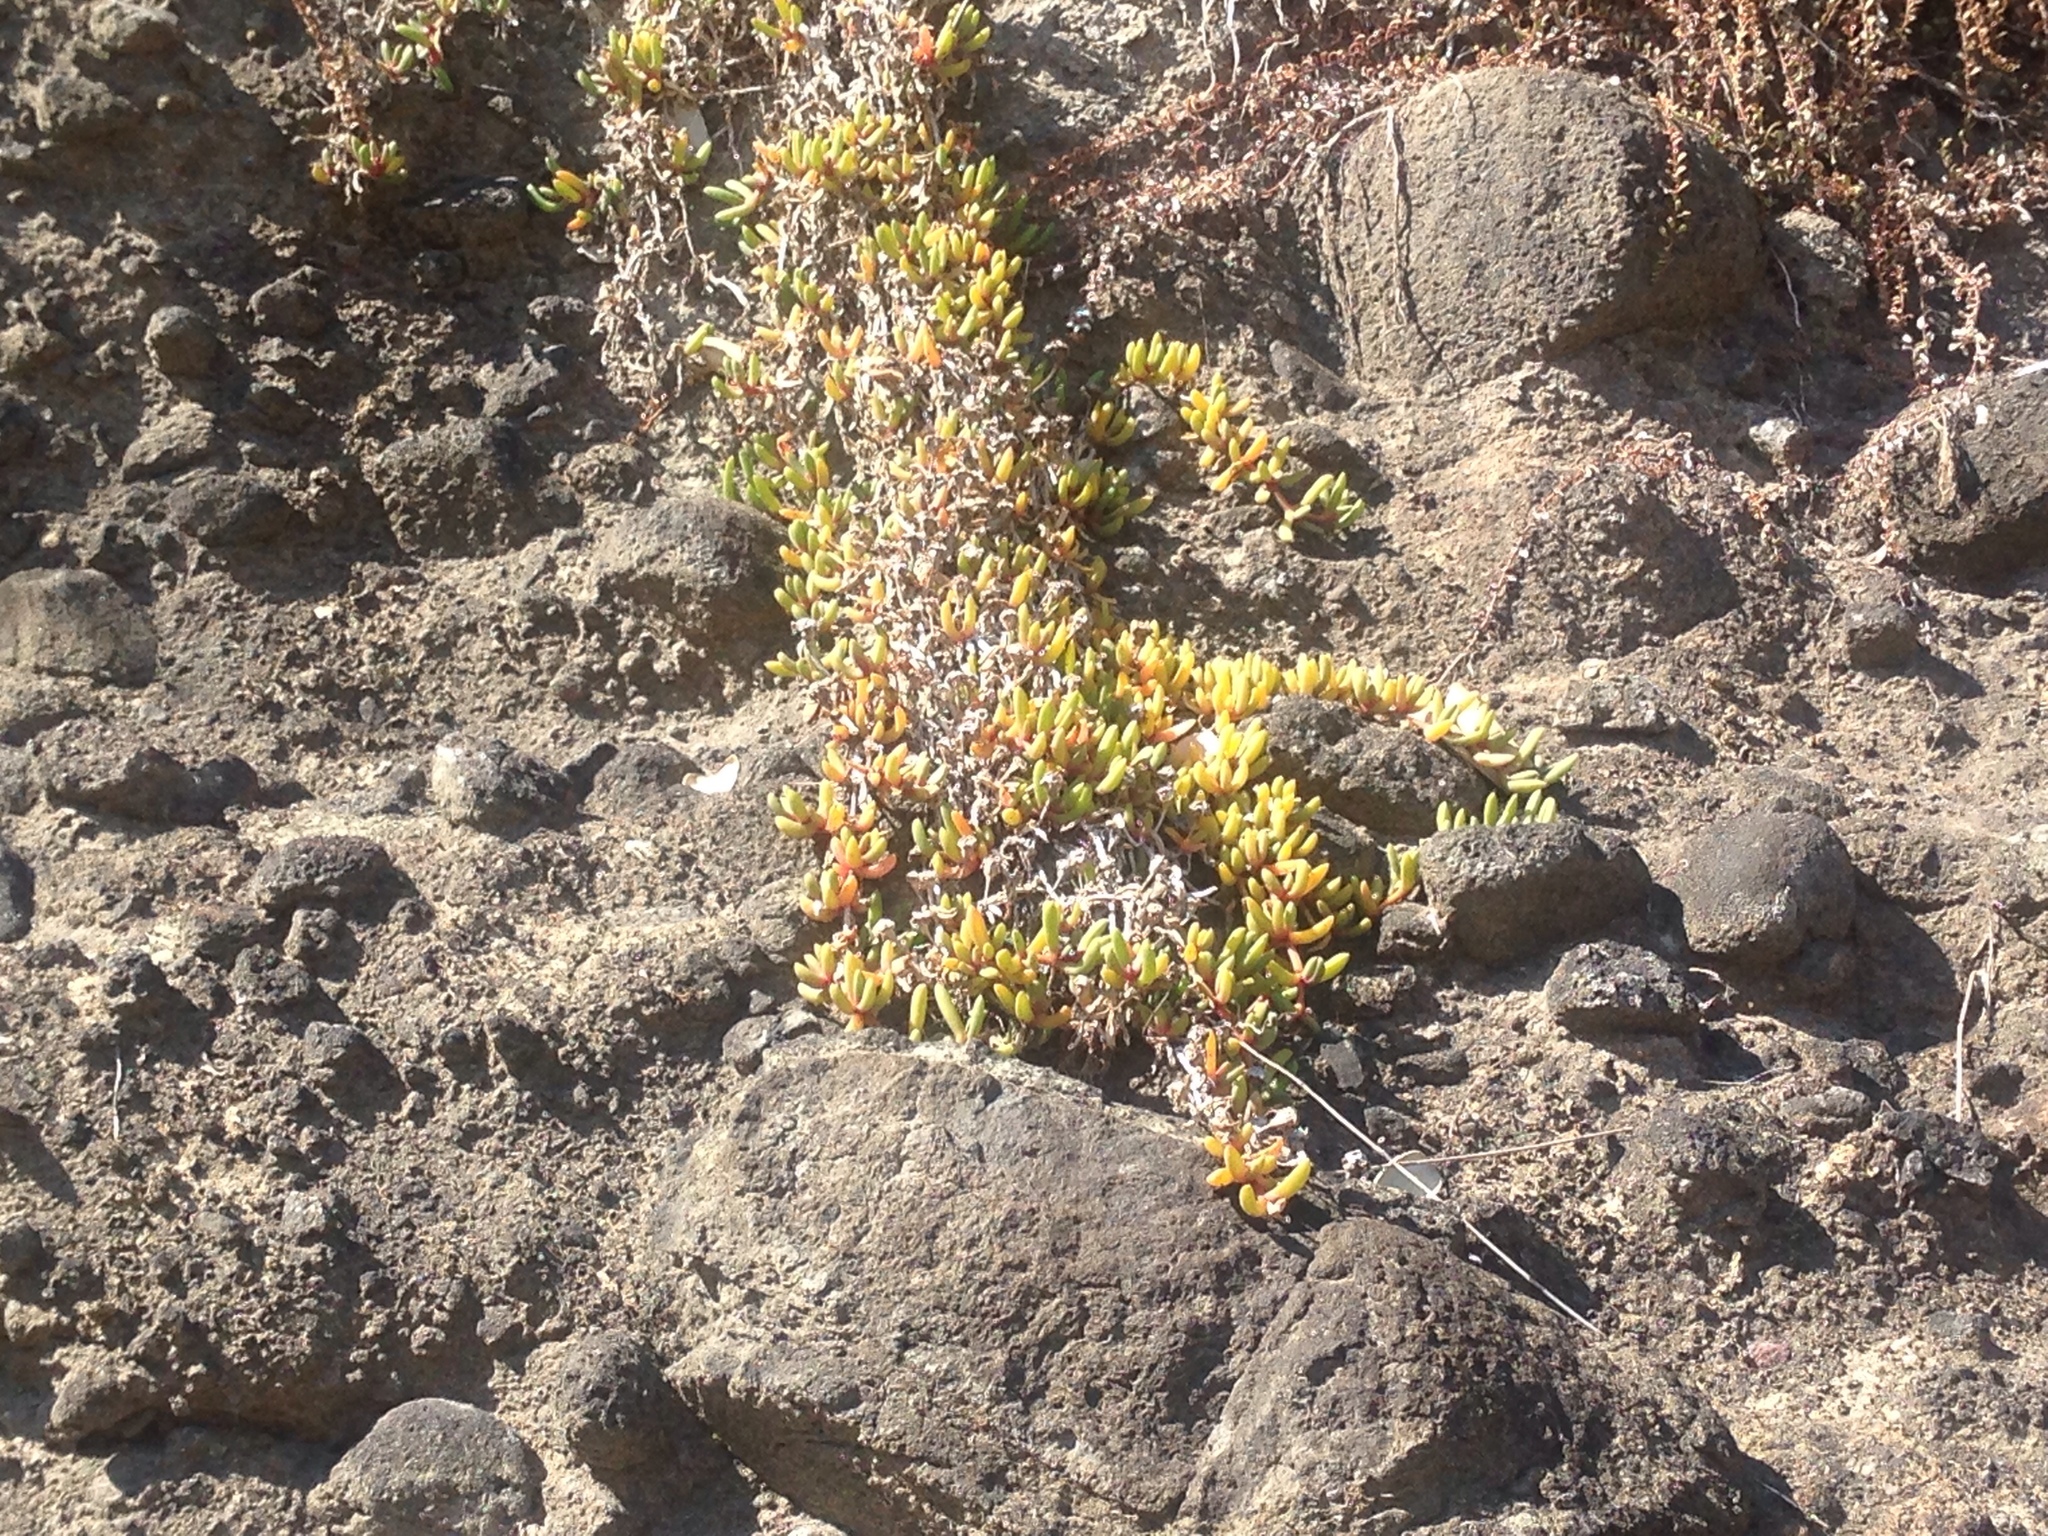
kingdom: Plantae
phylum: Tracheophyta
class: Magnoliopsida
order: Caryophyllales
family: Aizoaceae
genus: Disphyma
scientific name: Disphyma australe
